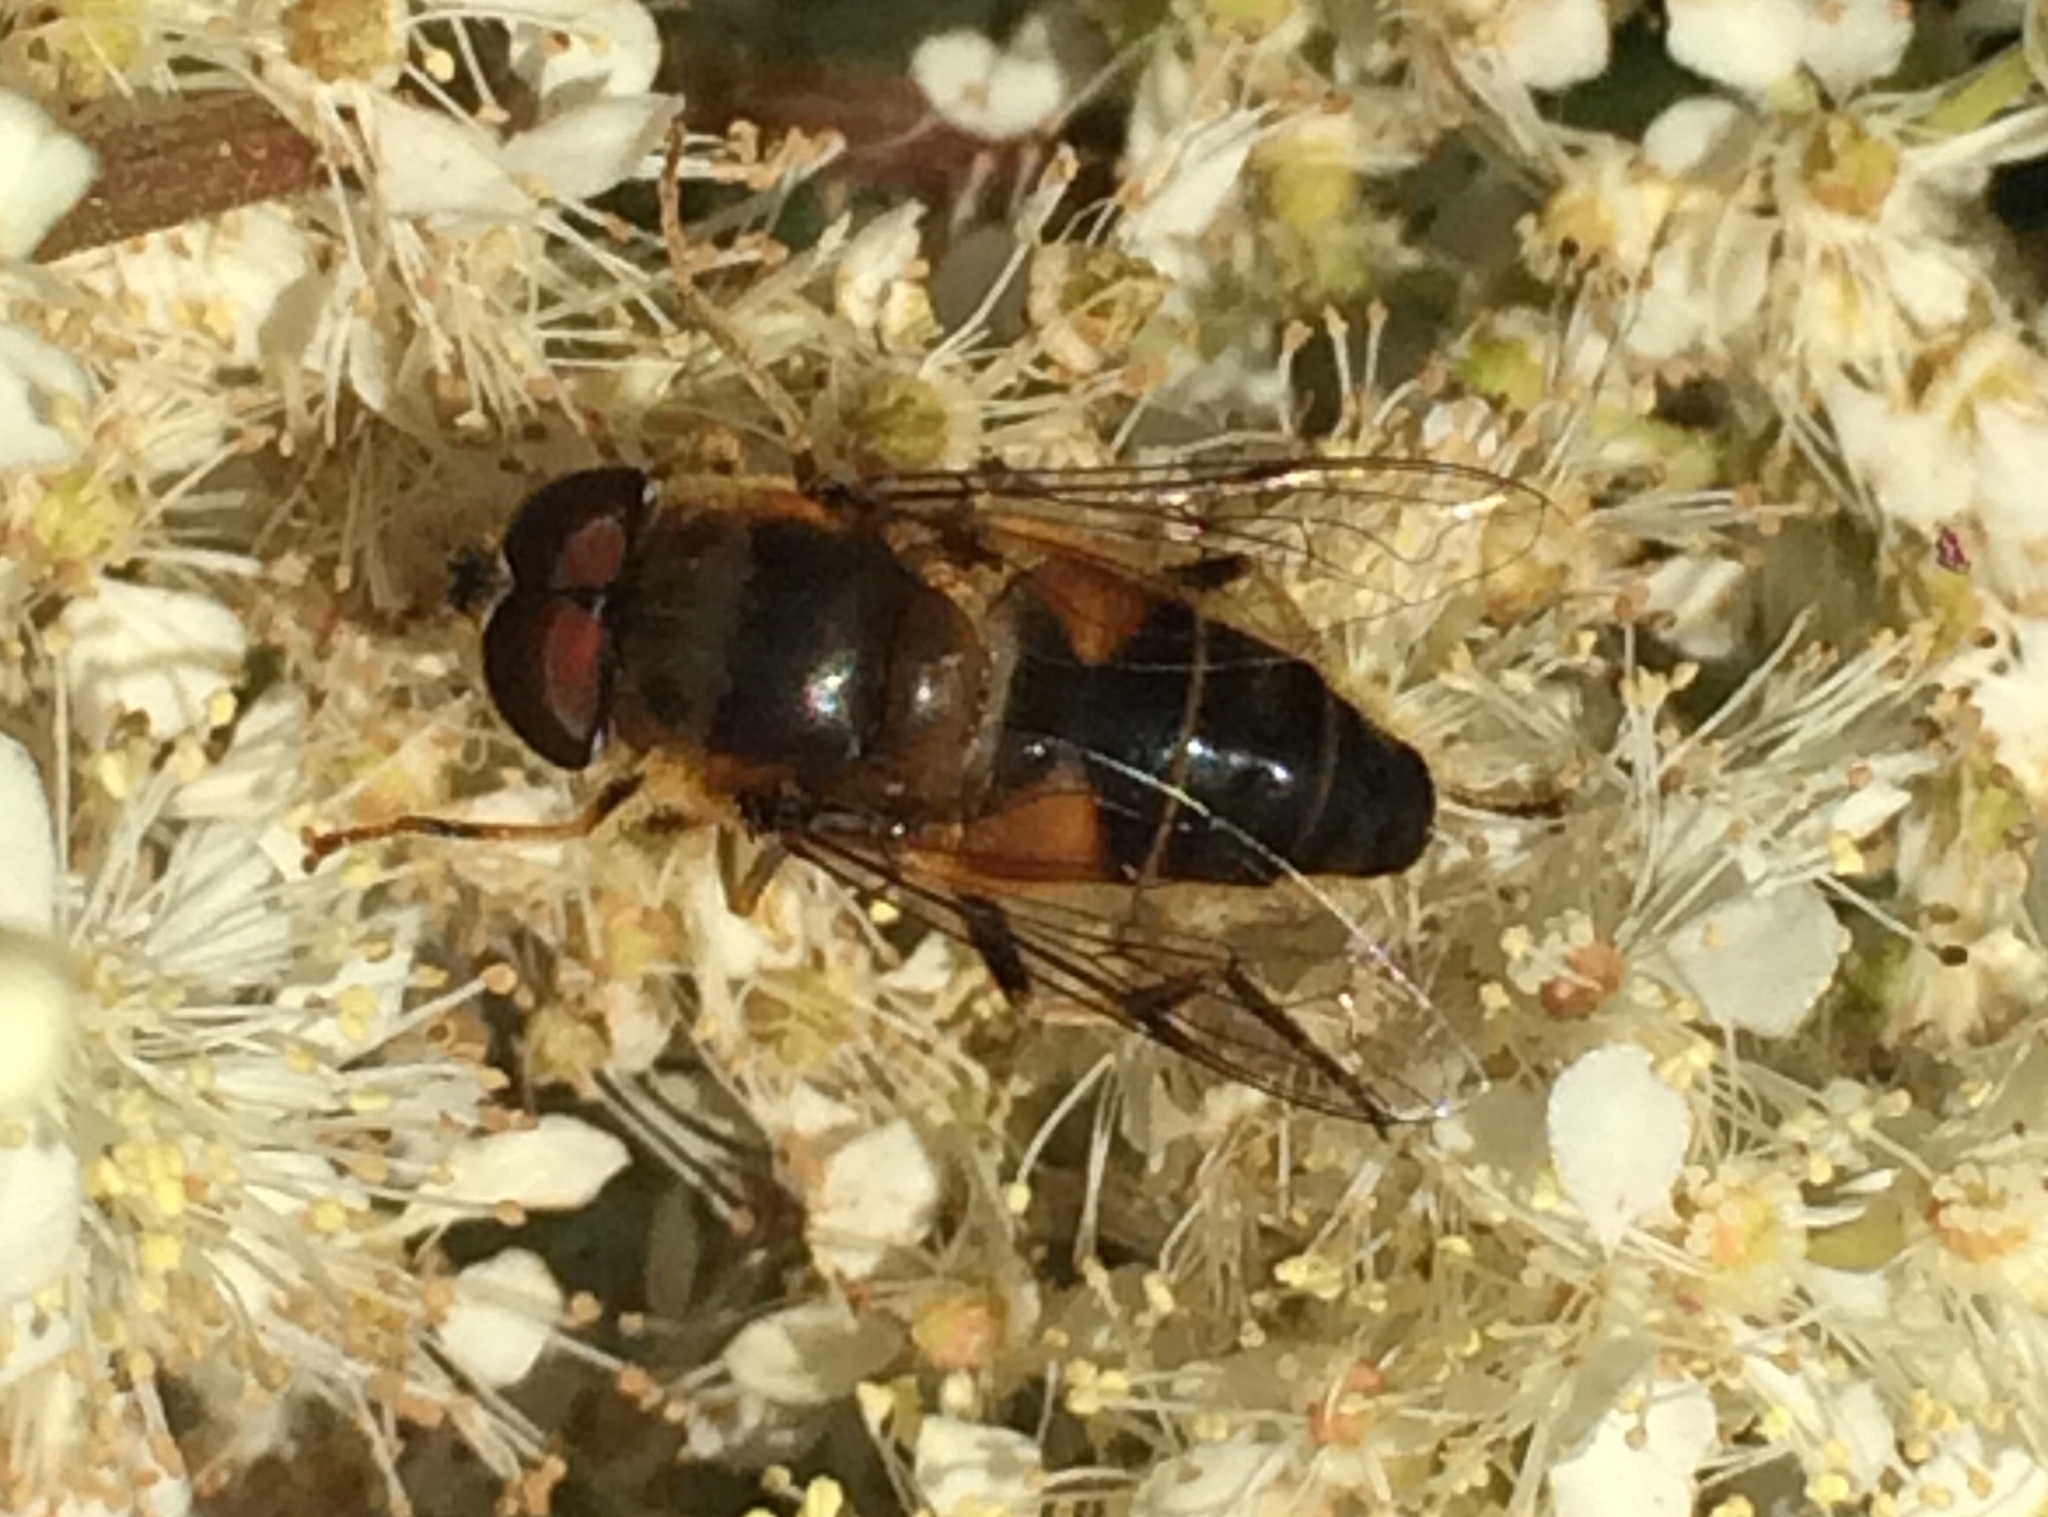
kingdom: Animalia
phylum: Arthropoda
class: Insecta
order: Diptera
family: Syrphidae
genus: Eristalis
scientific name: Eristalis pertinax
